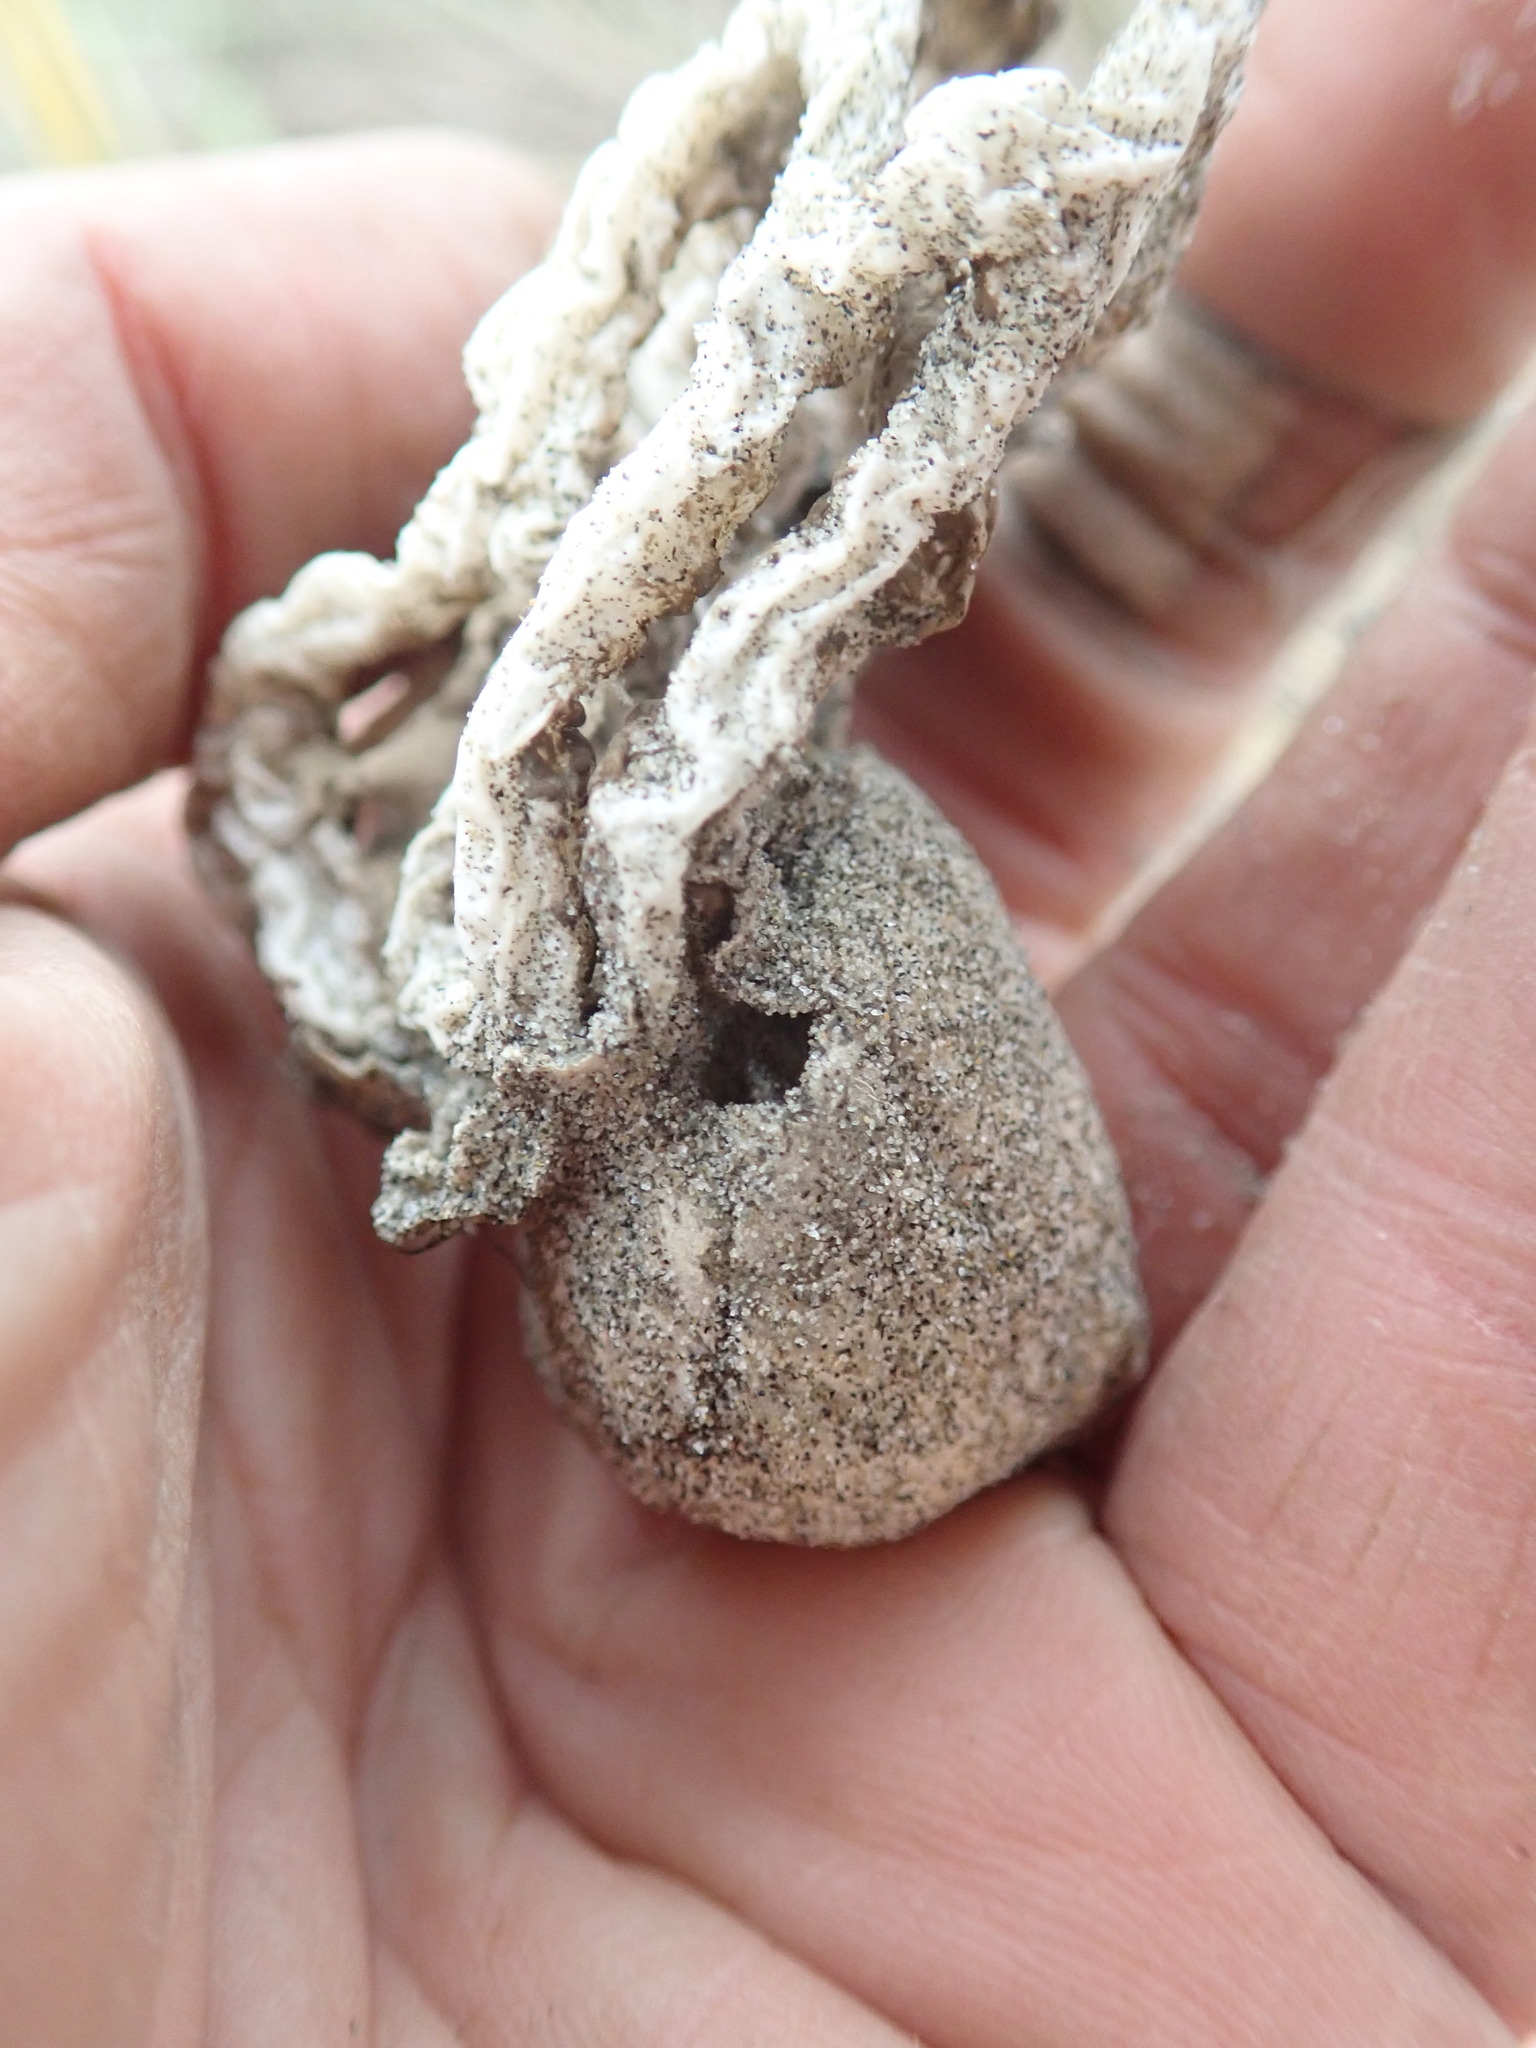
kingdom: Fungi
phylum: Basidiomycota
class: Agaricomycetes
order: Phallales
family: Phallaceae
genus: Ileodictyon
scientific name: Ileodictyon cibarium
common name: Basket fungus
